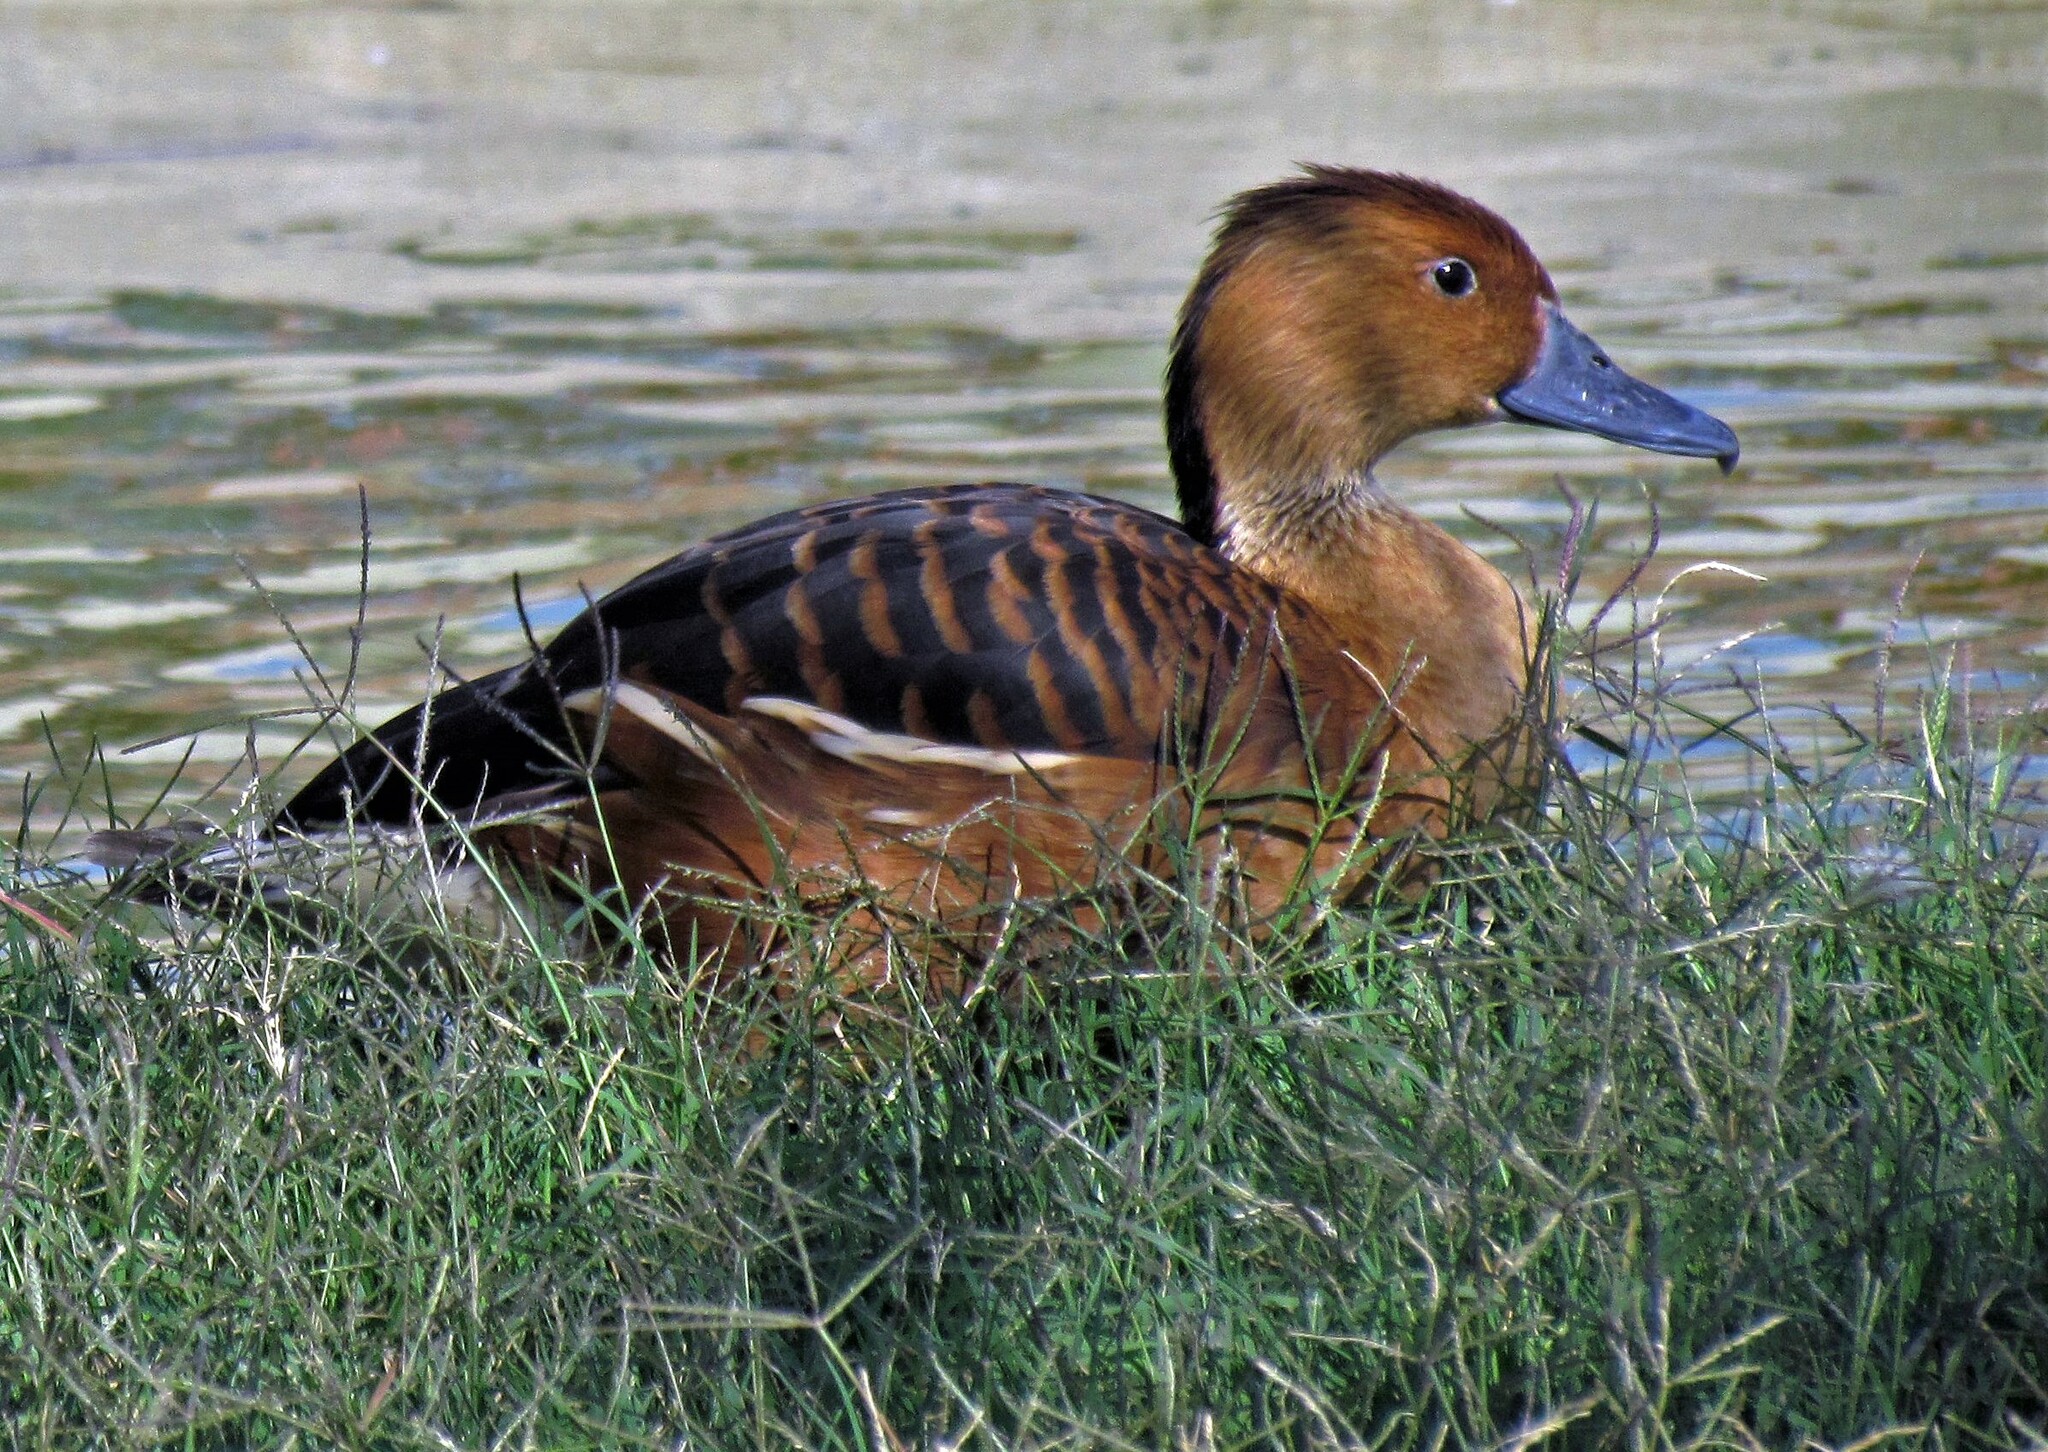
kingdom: Animalia
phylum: Chordata
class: Aves
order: Anseriformes
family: Anatidae
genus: Dendrocygna
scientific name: Dendrocygna bicolor
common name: Fulvous whistling duck
